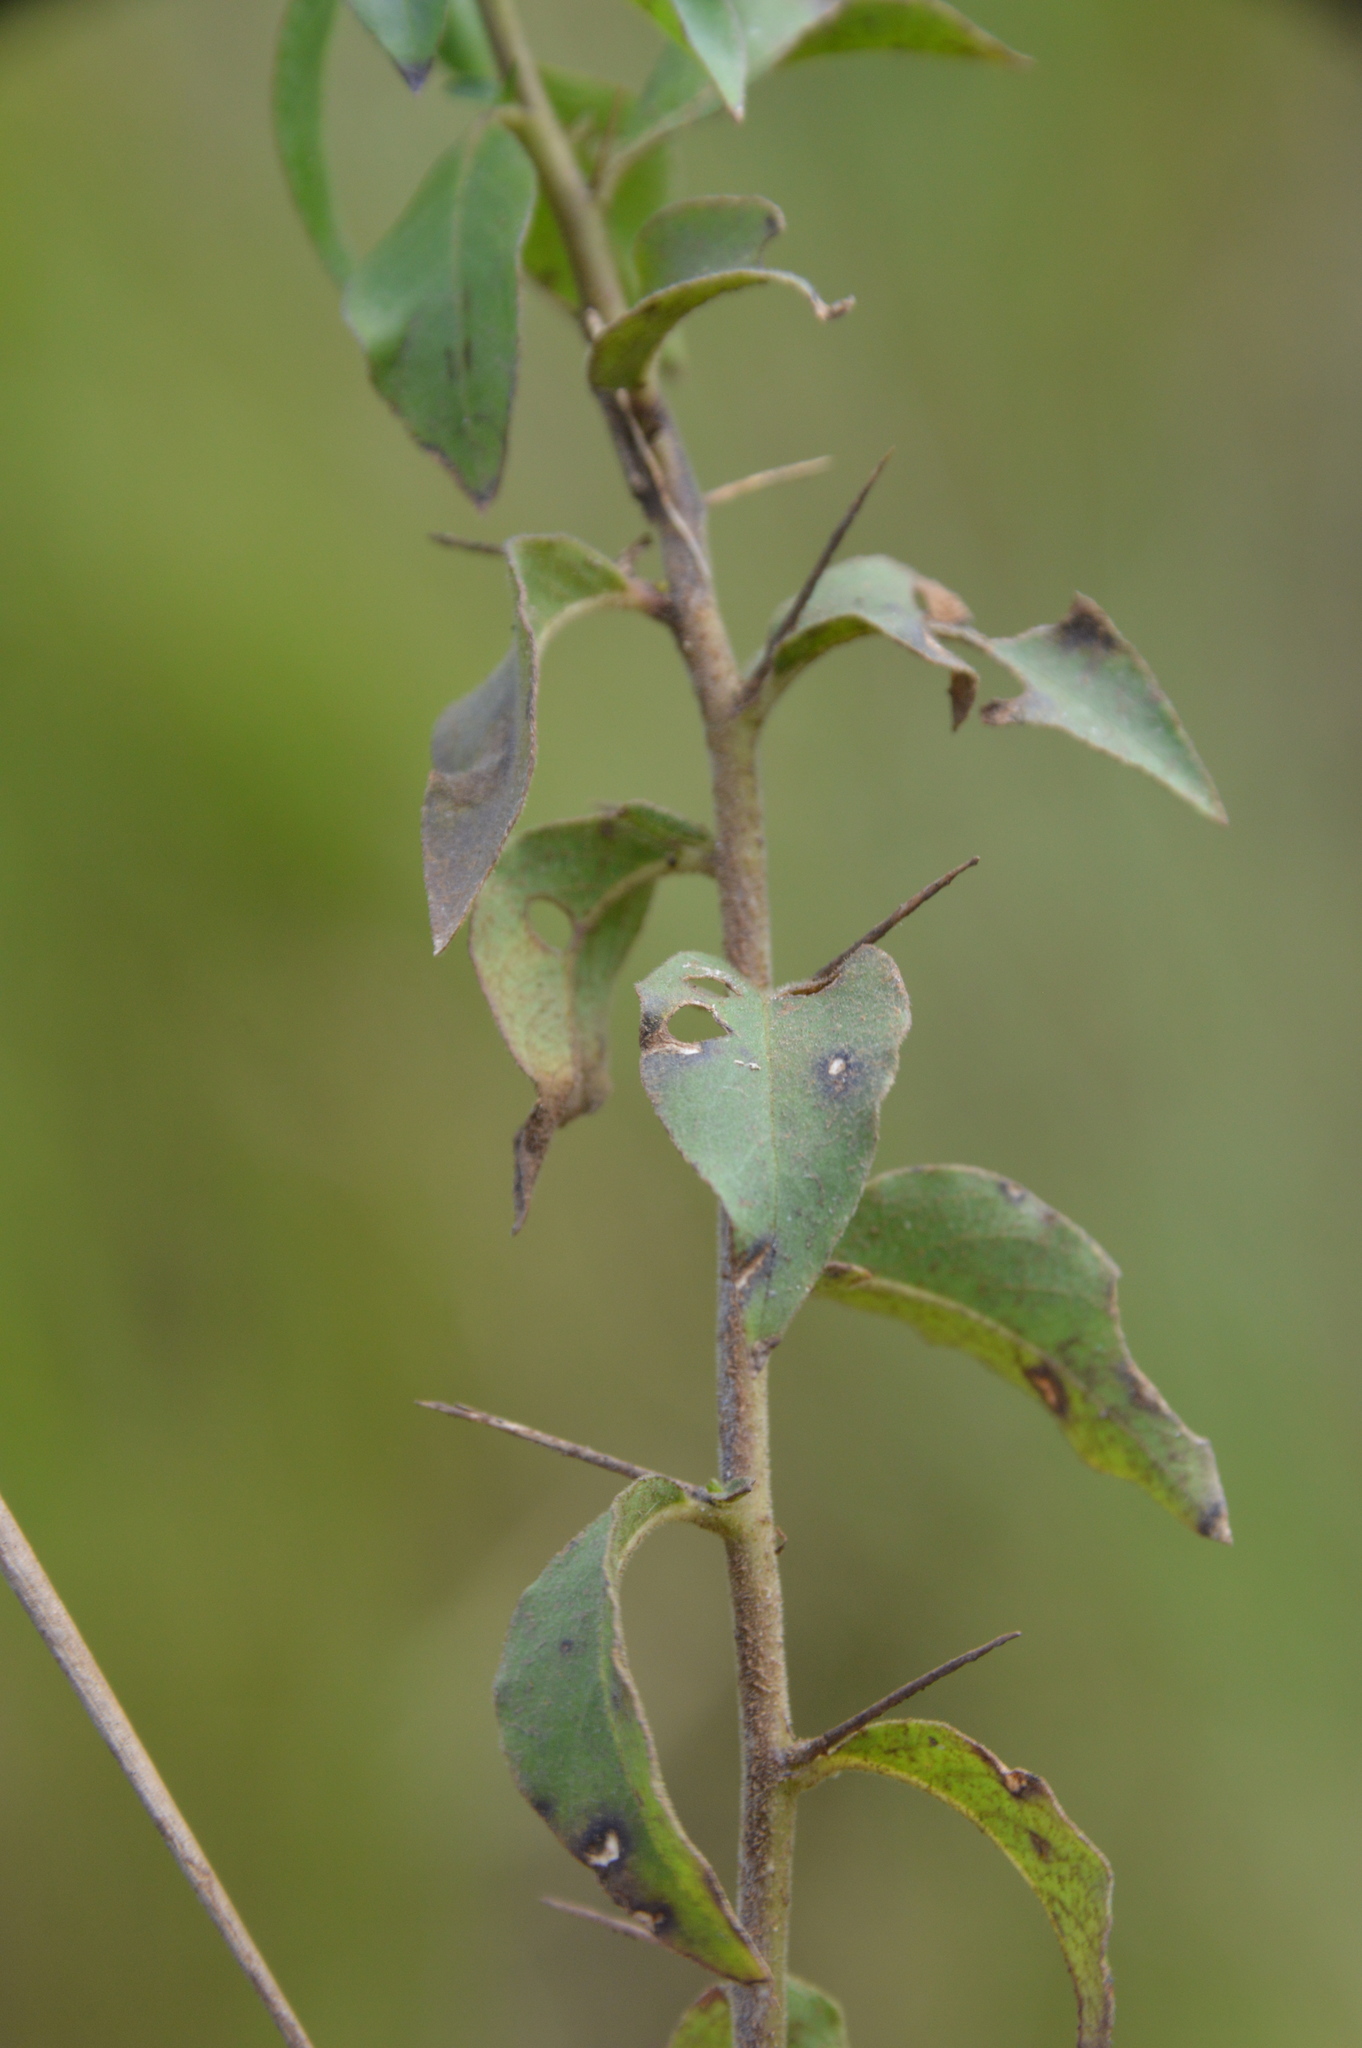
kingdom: Plantae
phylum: Tracheophyta
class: Magnoliopsida
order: Solanales
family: Hydroleaceae
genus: Hydrolea
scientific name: Hydrolea ovata
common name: Ovate false fiddleleaf
